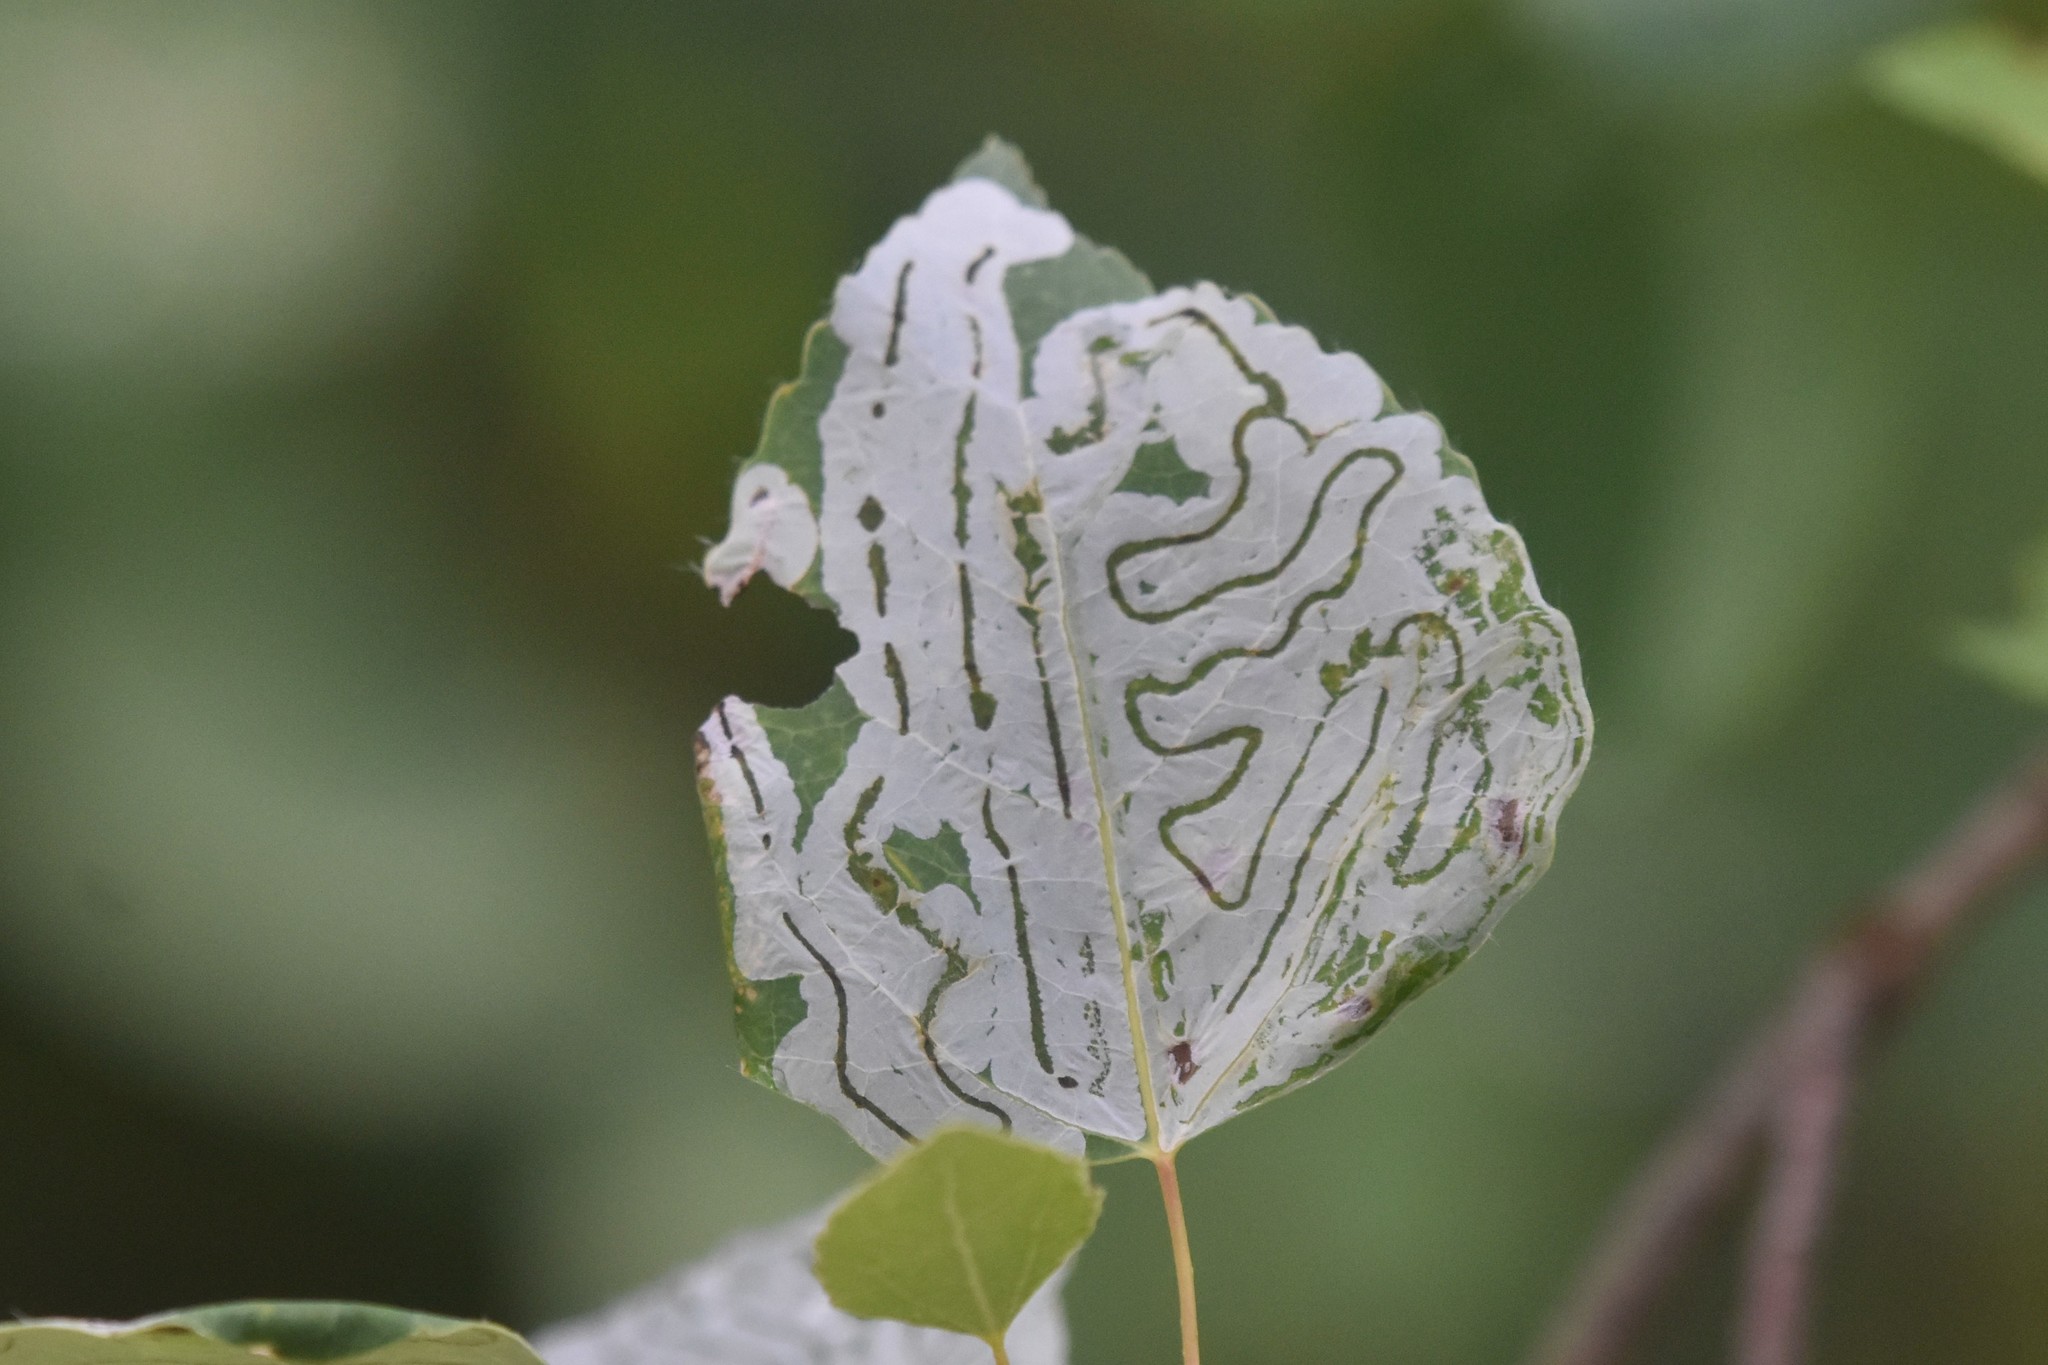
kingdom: Animalia
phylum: Arthropoda
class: Insecta
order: Lepidoptera
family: Gracillariidae
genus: Phyllocnistis
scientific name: Phyllocnistis populiella
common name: Aspen serpentine leafminer moth
